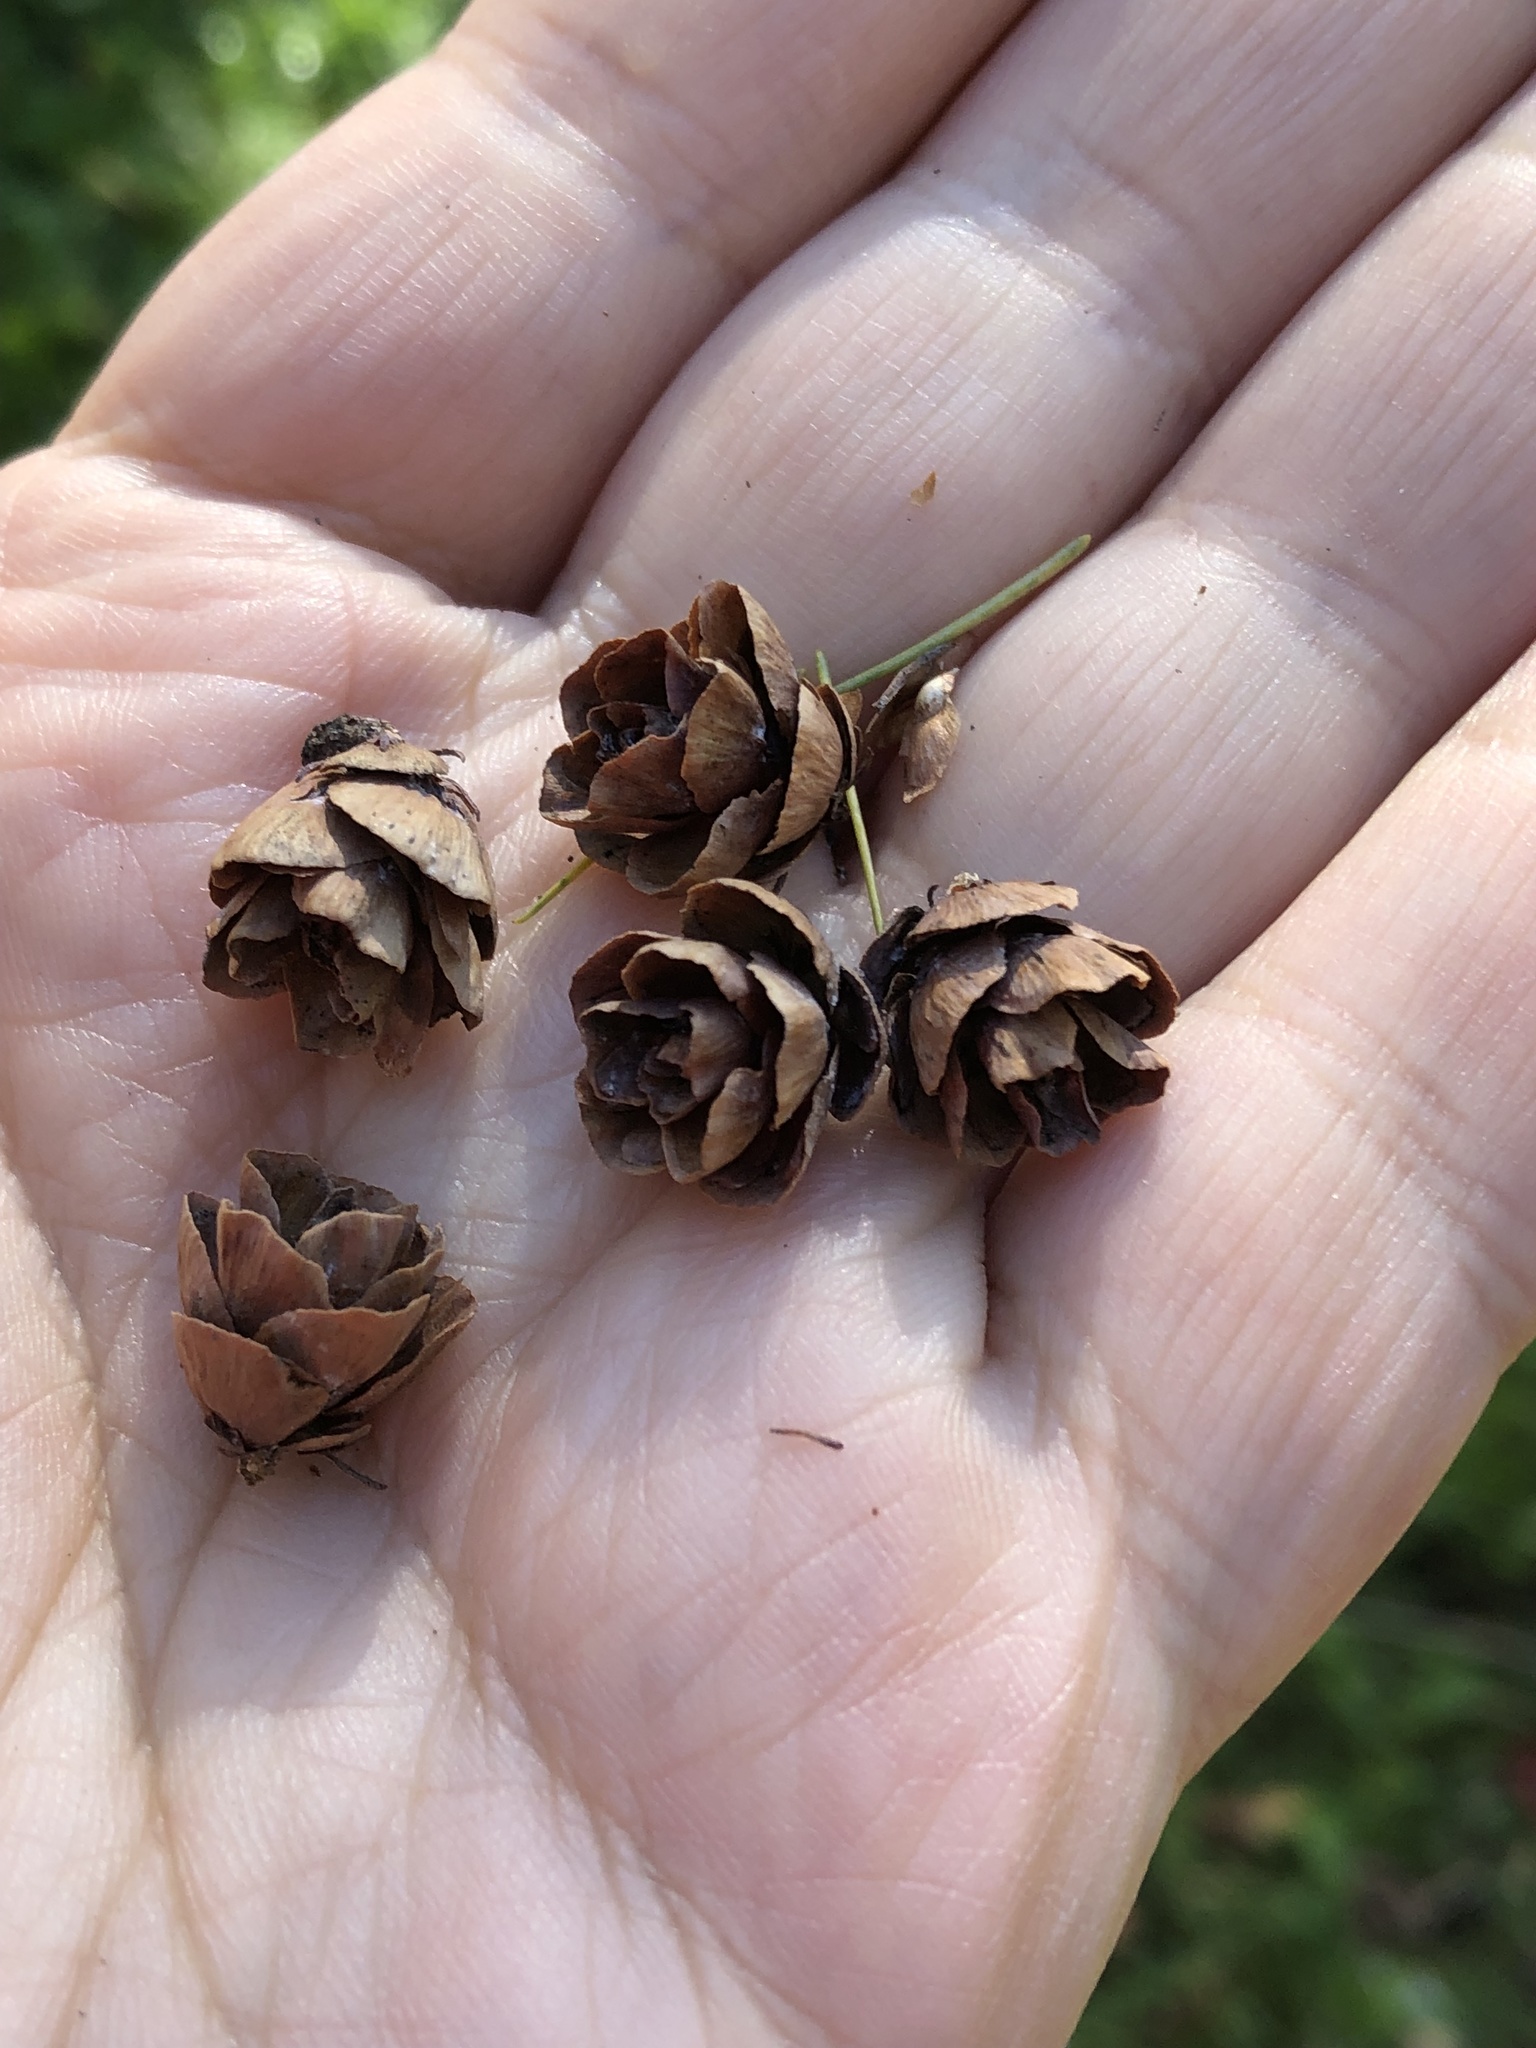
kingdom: Plantae
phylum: Tracheophyta
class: Pinopsida
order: Pinales
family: Pinaceae
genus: Larix
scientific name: Larix laricina
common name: American larch
